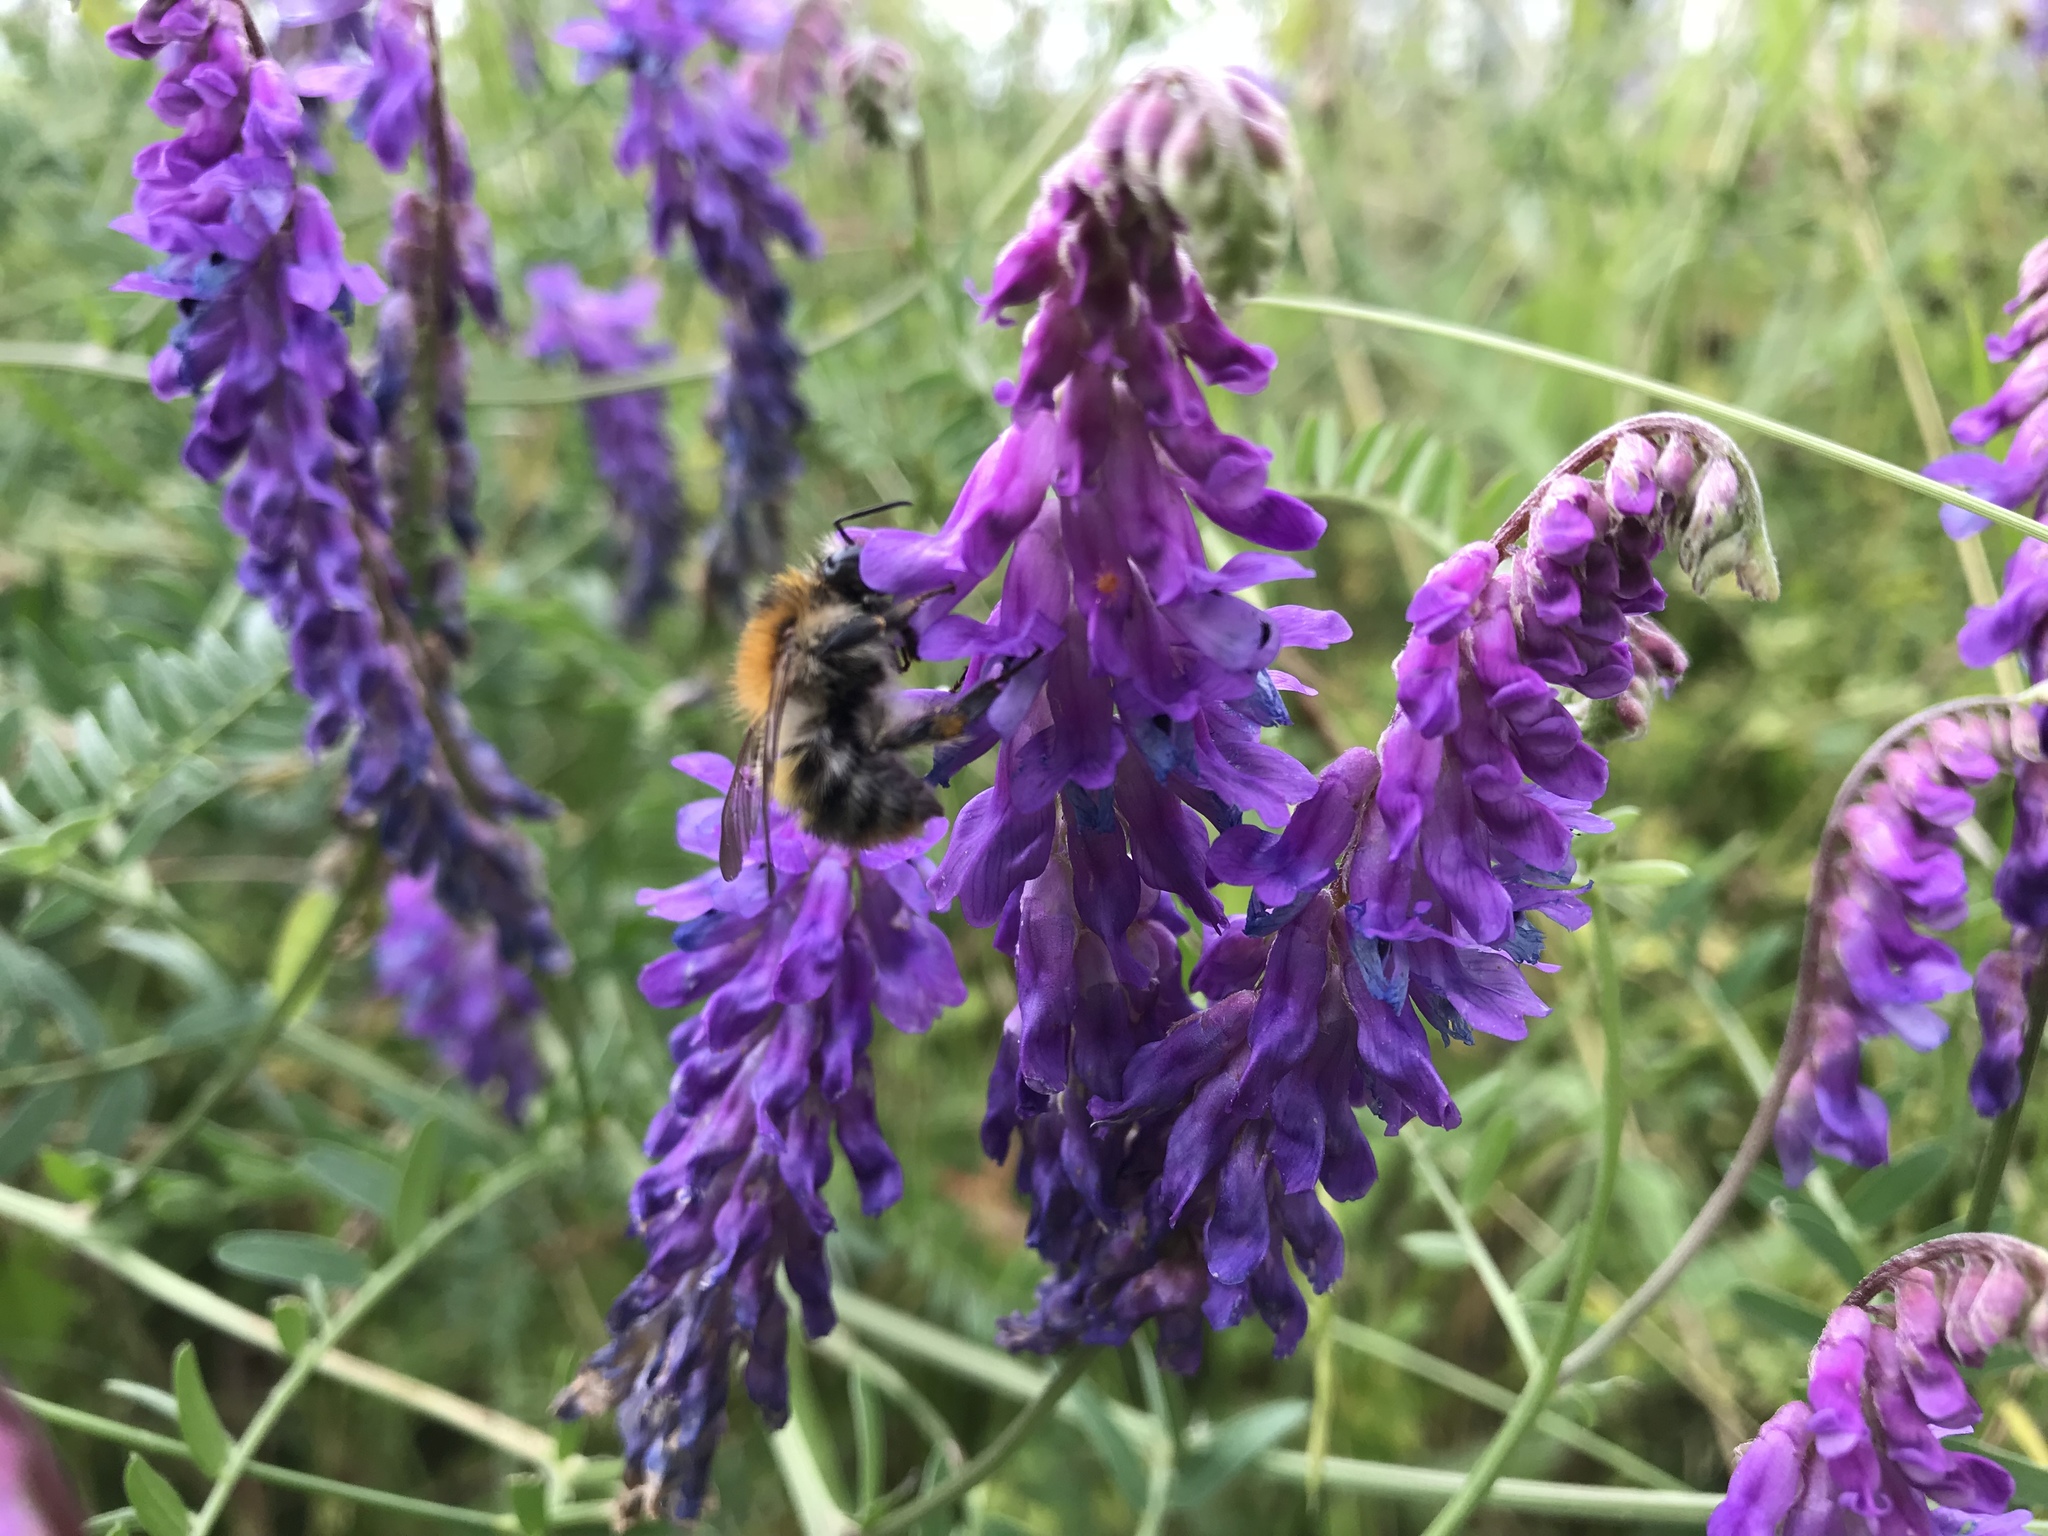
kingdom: Plantae
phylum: Tracheophyta
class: Magnoliopsida
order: Fabales
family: Fabaceae
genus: Vicia
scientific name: Vicia cracca
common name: Bird vetch
